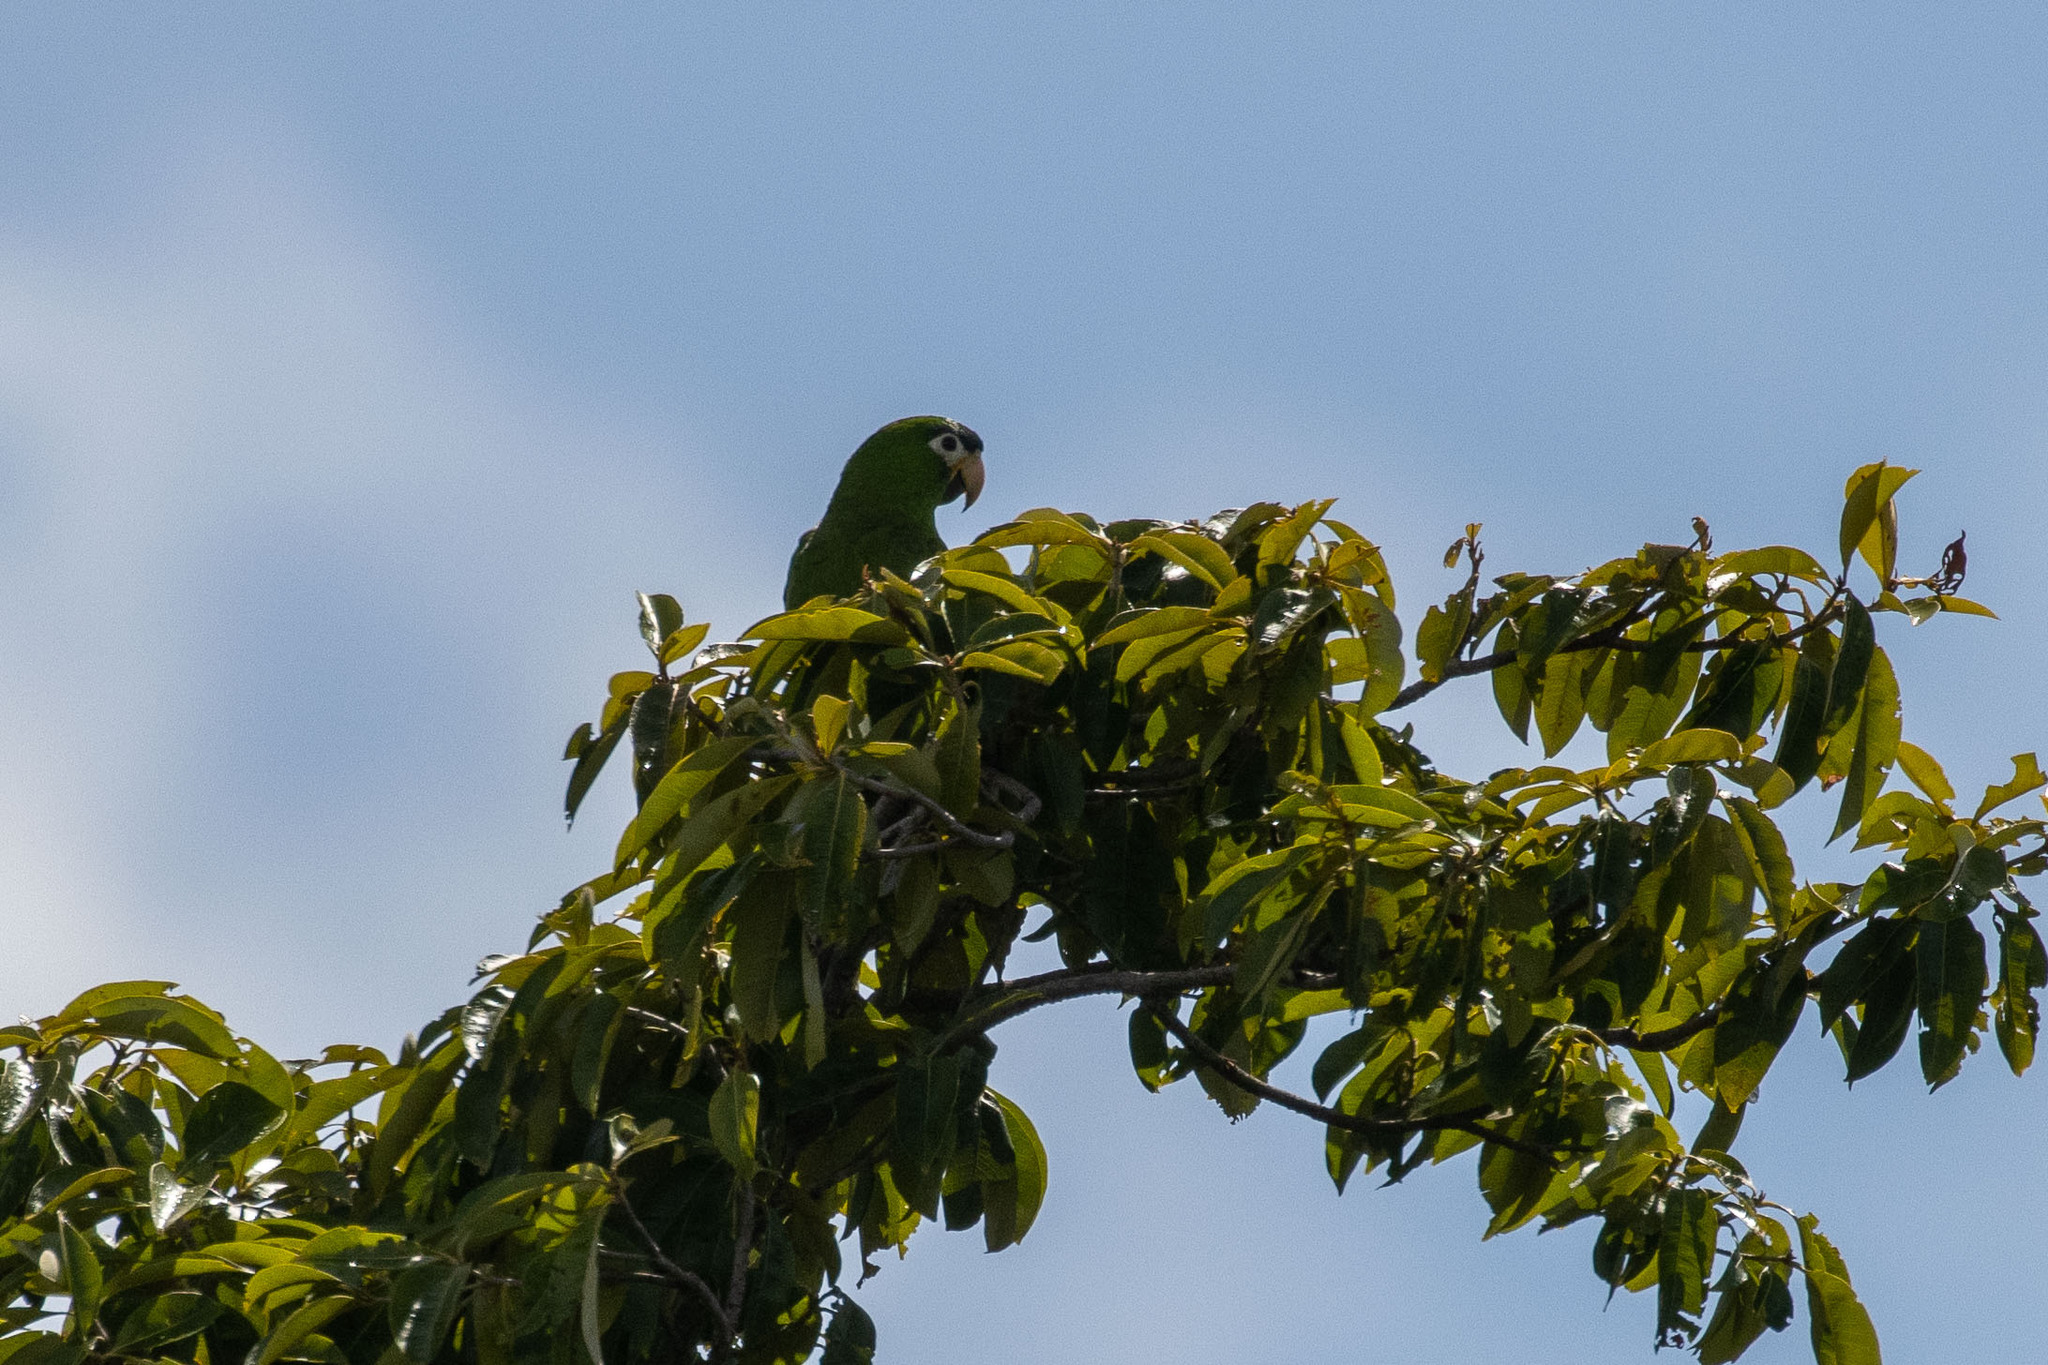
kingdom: Animalia
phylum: Chordata
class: Aves
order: Psittaciformes
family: Psittacidae
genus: Diopsittaca
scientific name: Diopsittaca nobilis
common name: Red-shouldered macaw
